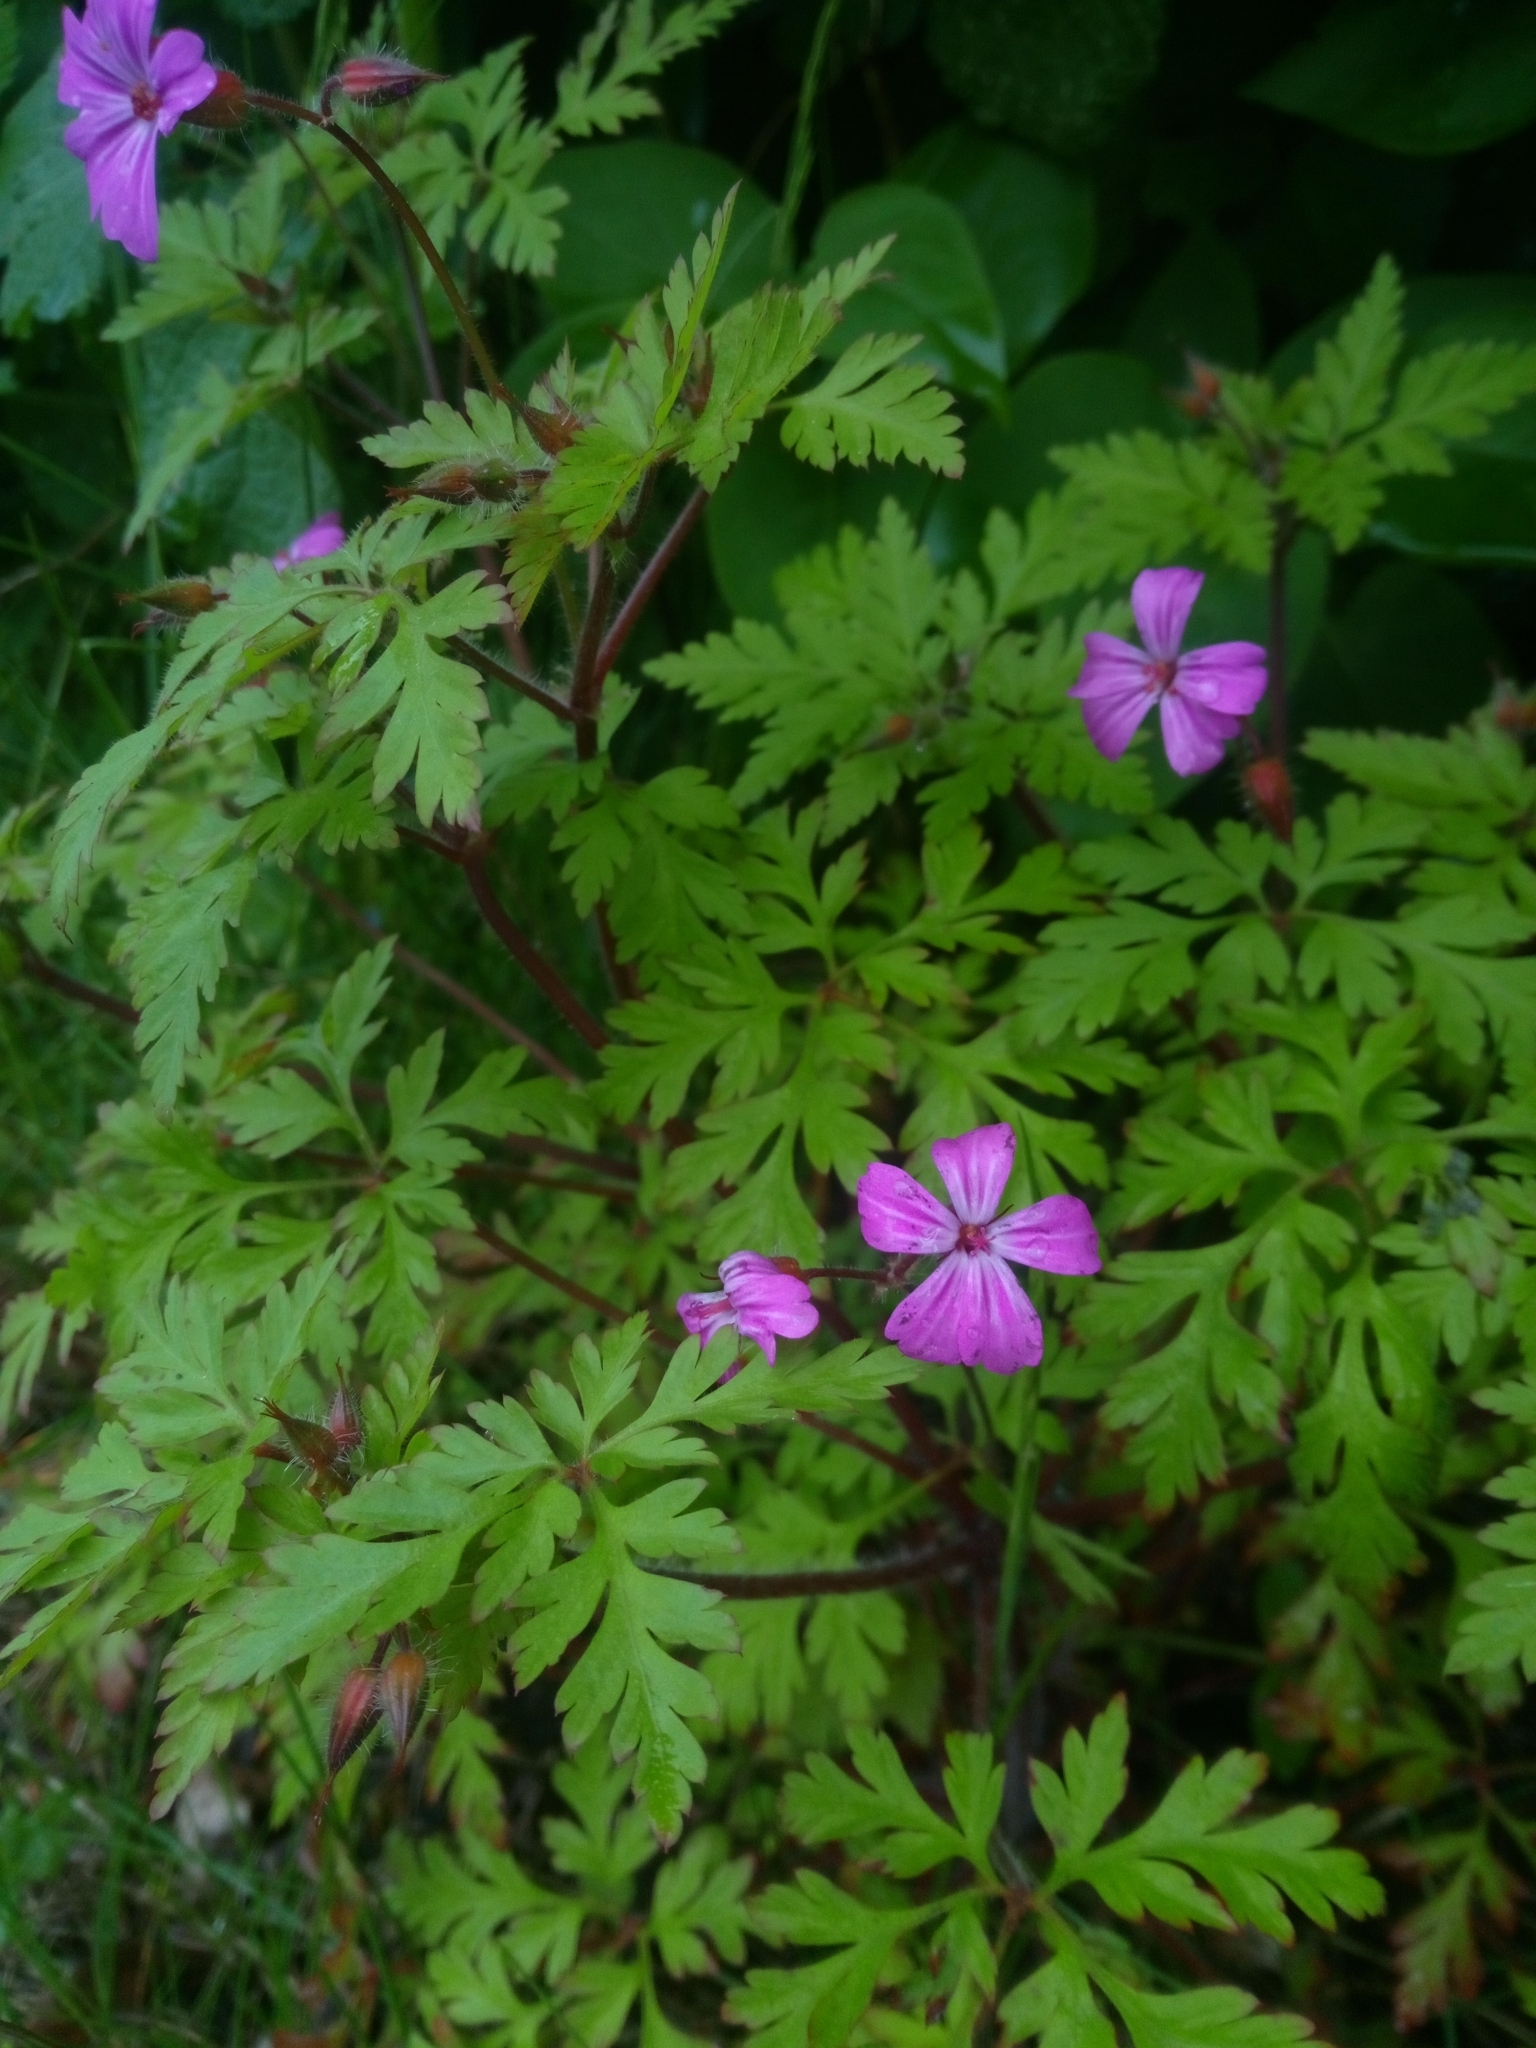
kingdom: Plantae
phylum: Tracheophyta
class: Magnoliopsida
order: Geraniales
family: Geraniaceae
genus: Geranium
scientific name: Geranium robertianum
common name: Herb-robert
